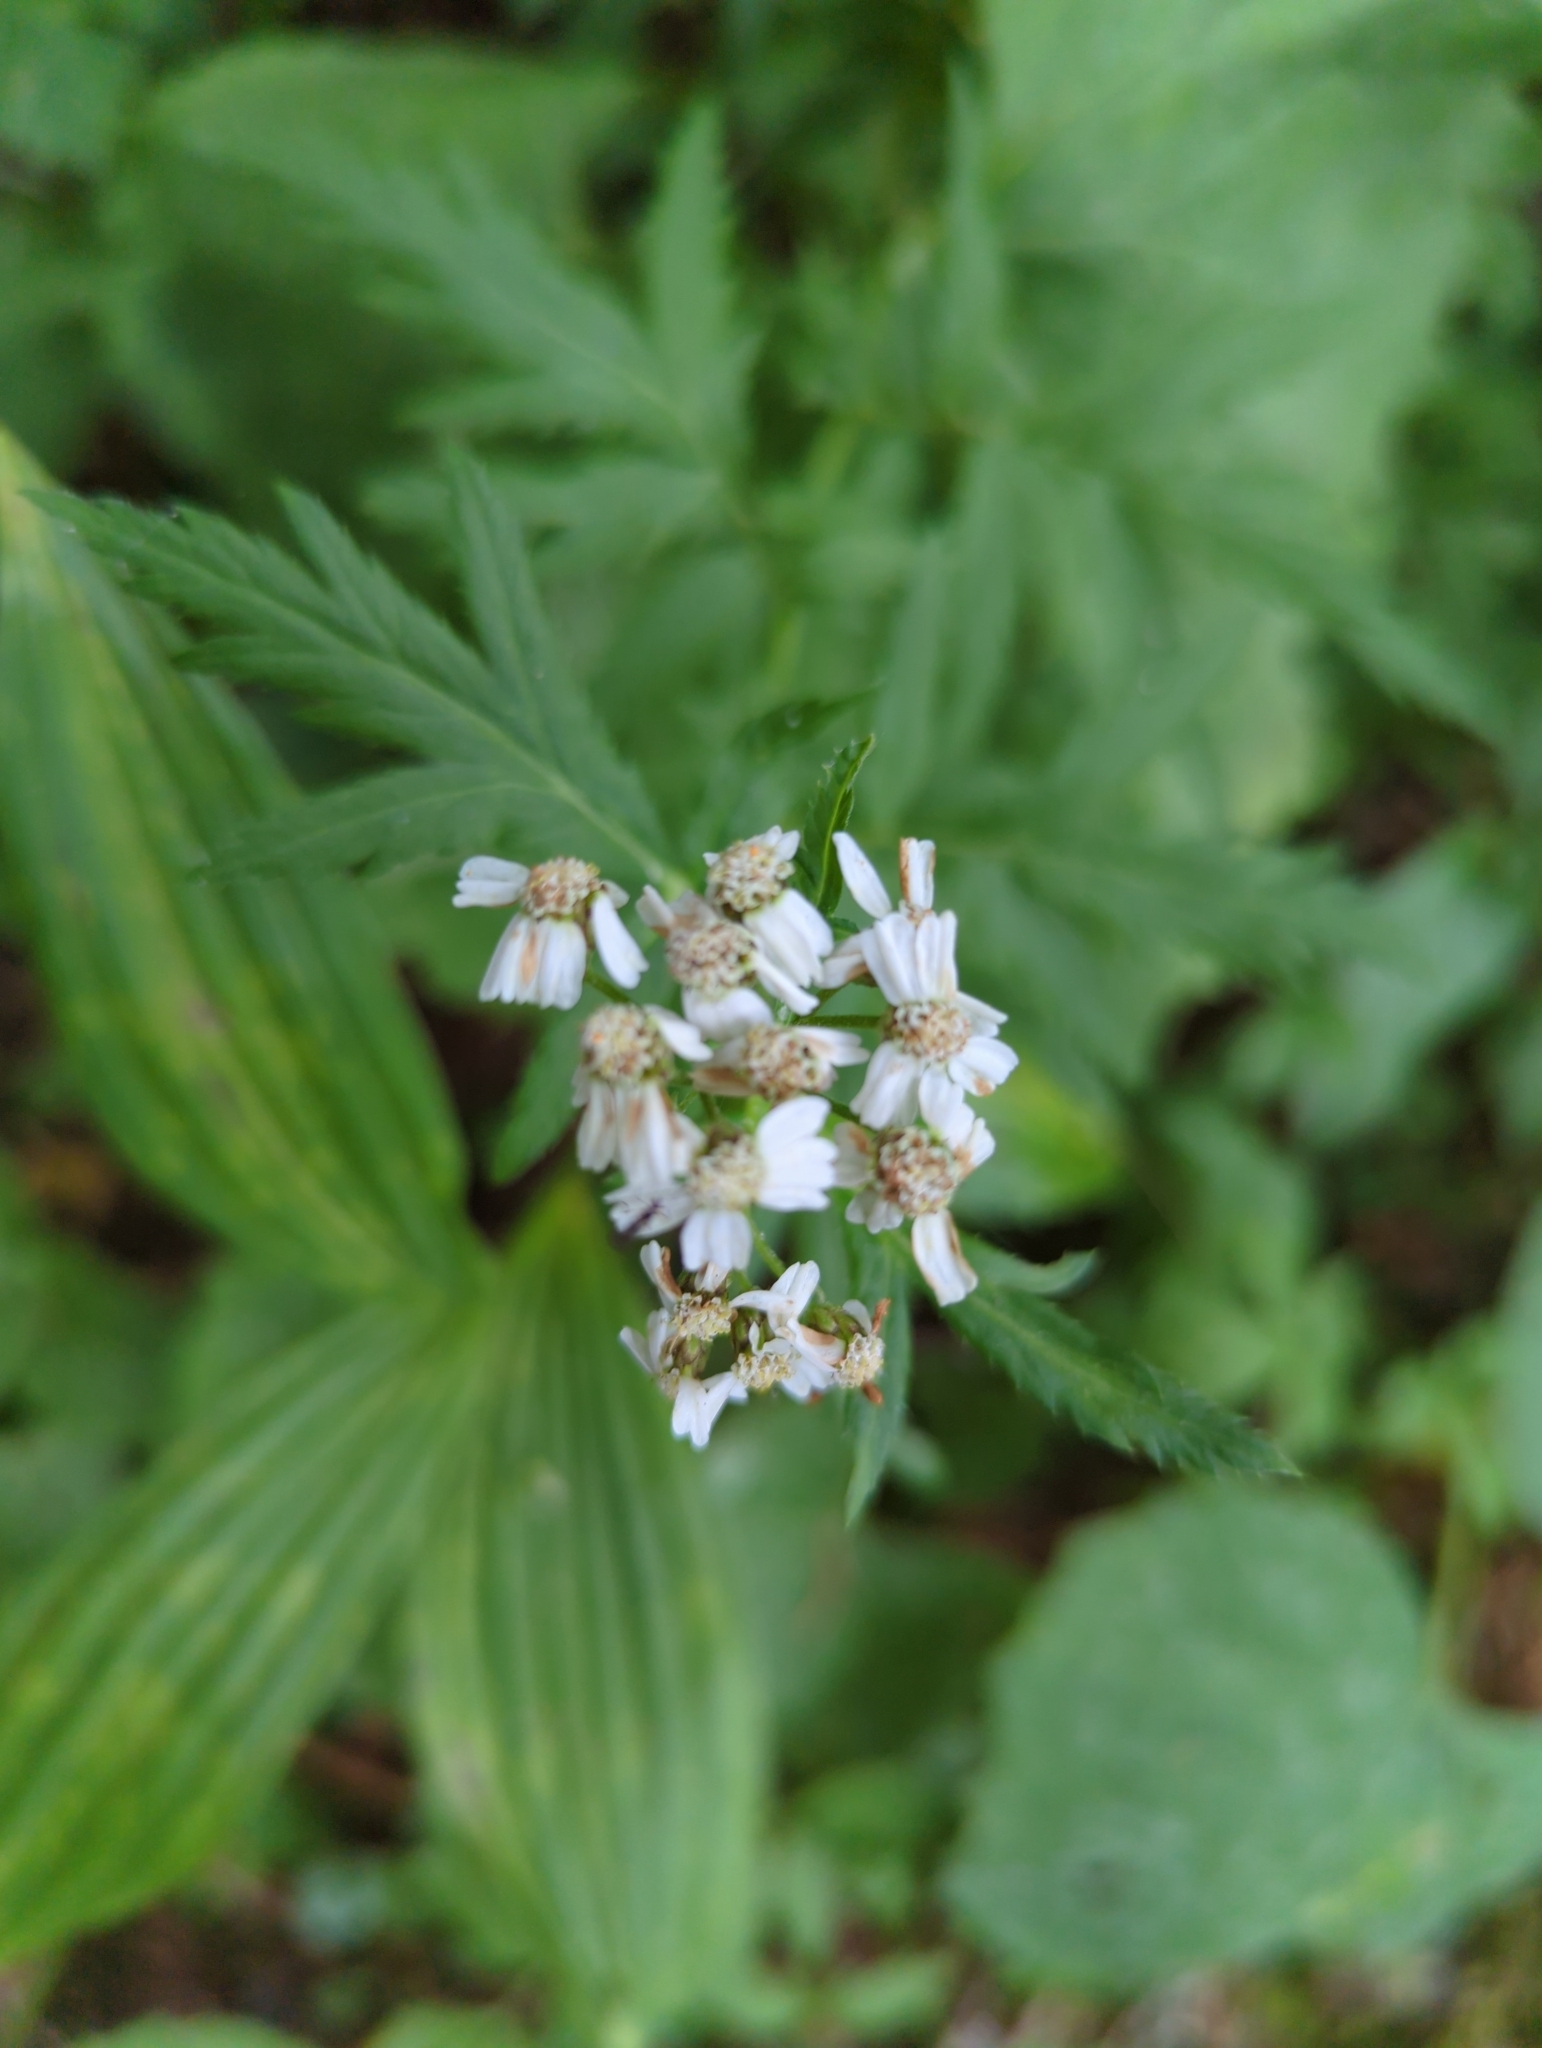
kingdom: Plantae
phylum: Tracheophyta
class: Magnoliopsida
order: Asterales
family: Asteraceae
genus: Achillea
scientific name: Achillea macrophylla
